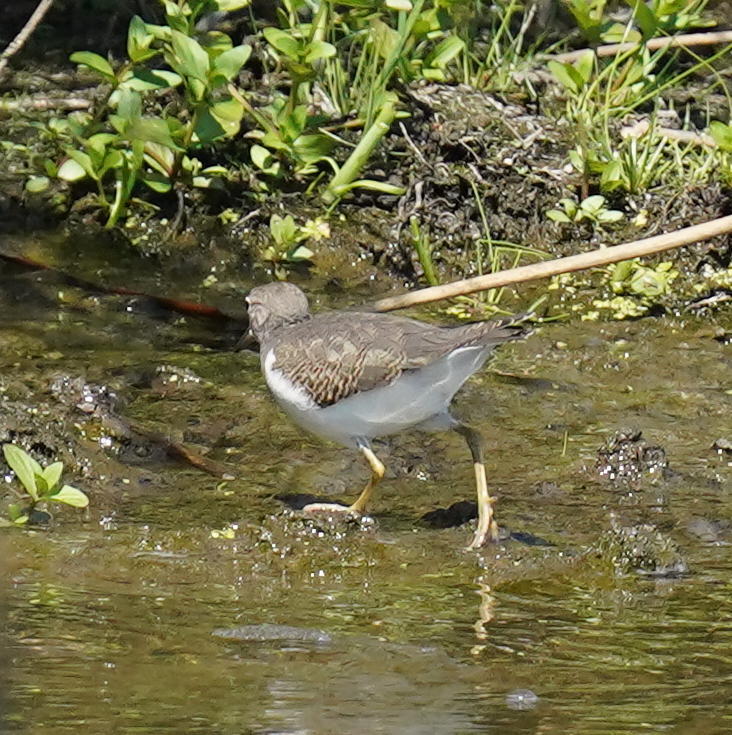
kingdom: Animalia
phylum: Chordata
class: Aves
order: Charadriiformes
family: Scolopacidae
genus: Actitis
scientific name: Actitis macularius
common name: Spotted sandpiper
